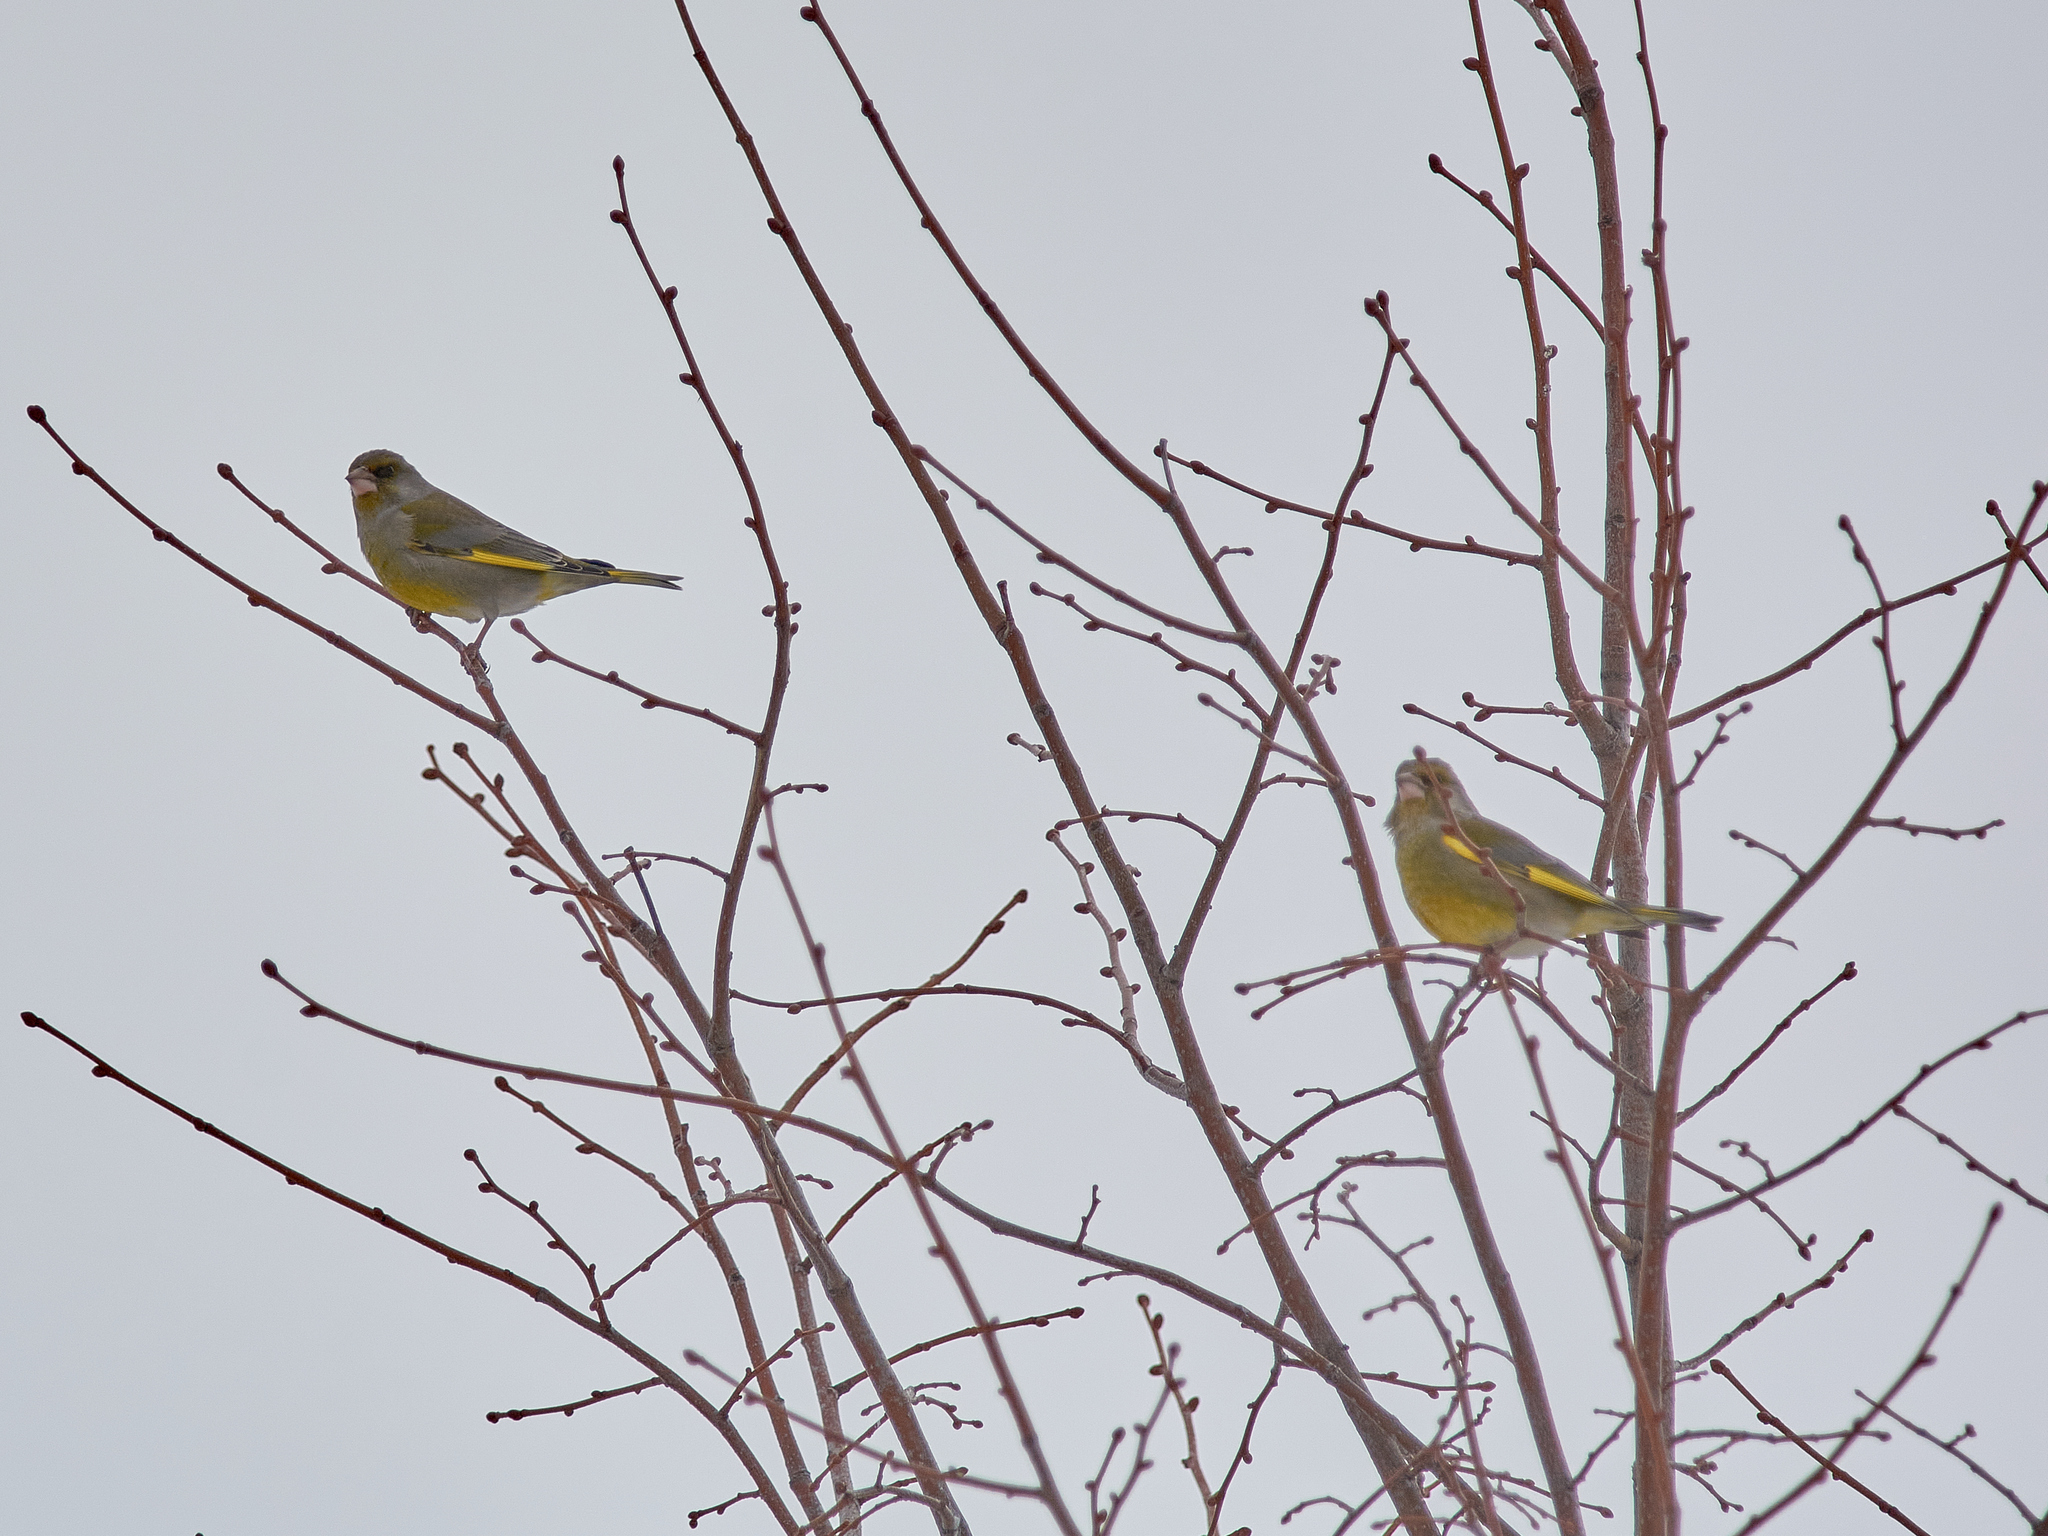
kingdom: Plantae
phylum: Tracheophyta
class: Liliopsida
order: Poales
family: Poaceae
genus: Chloris
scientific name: Chloris chloris
